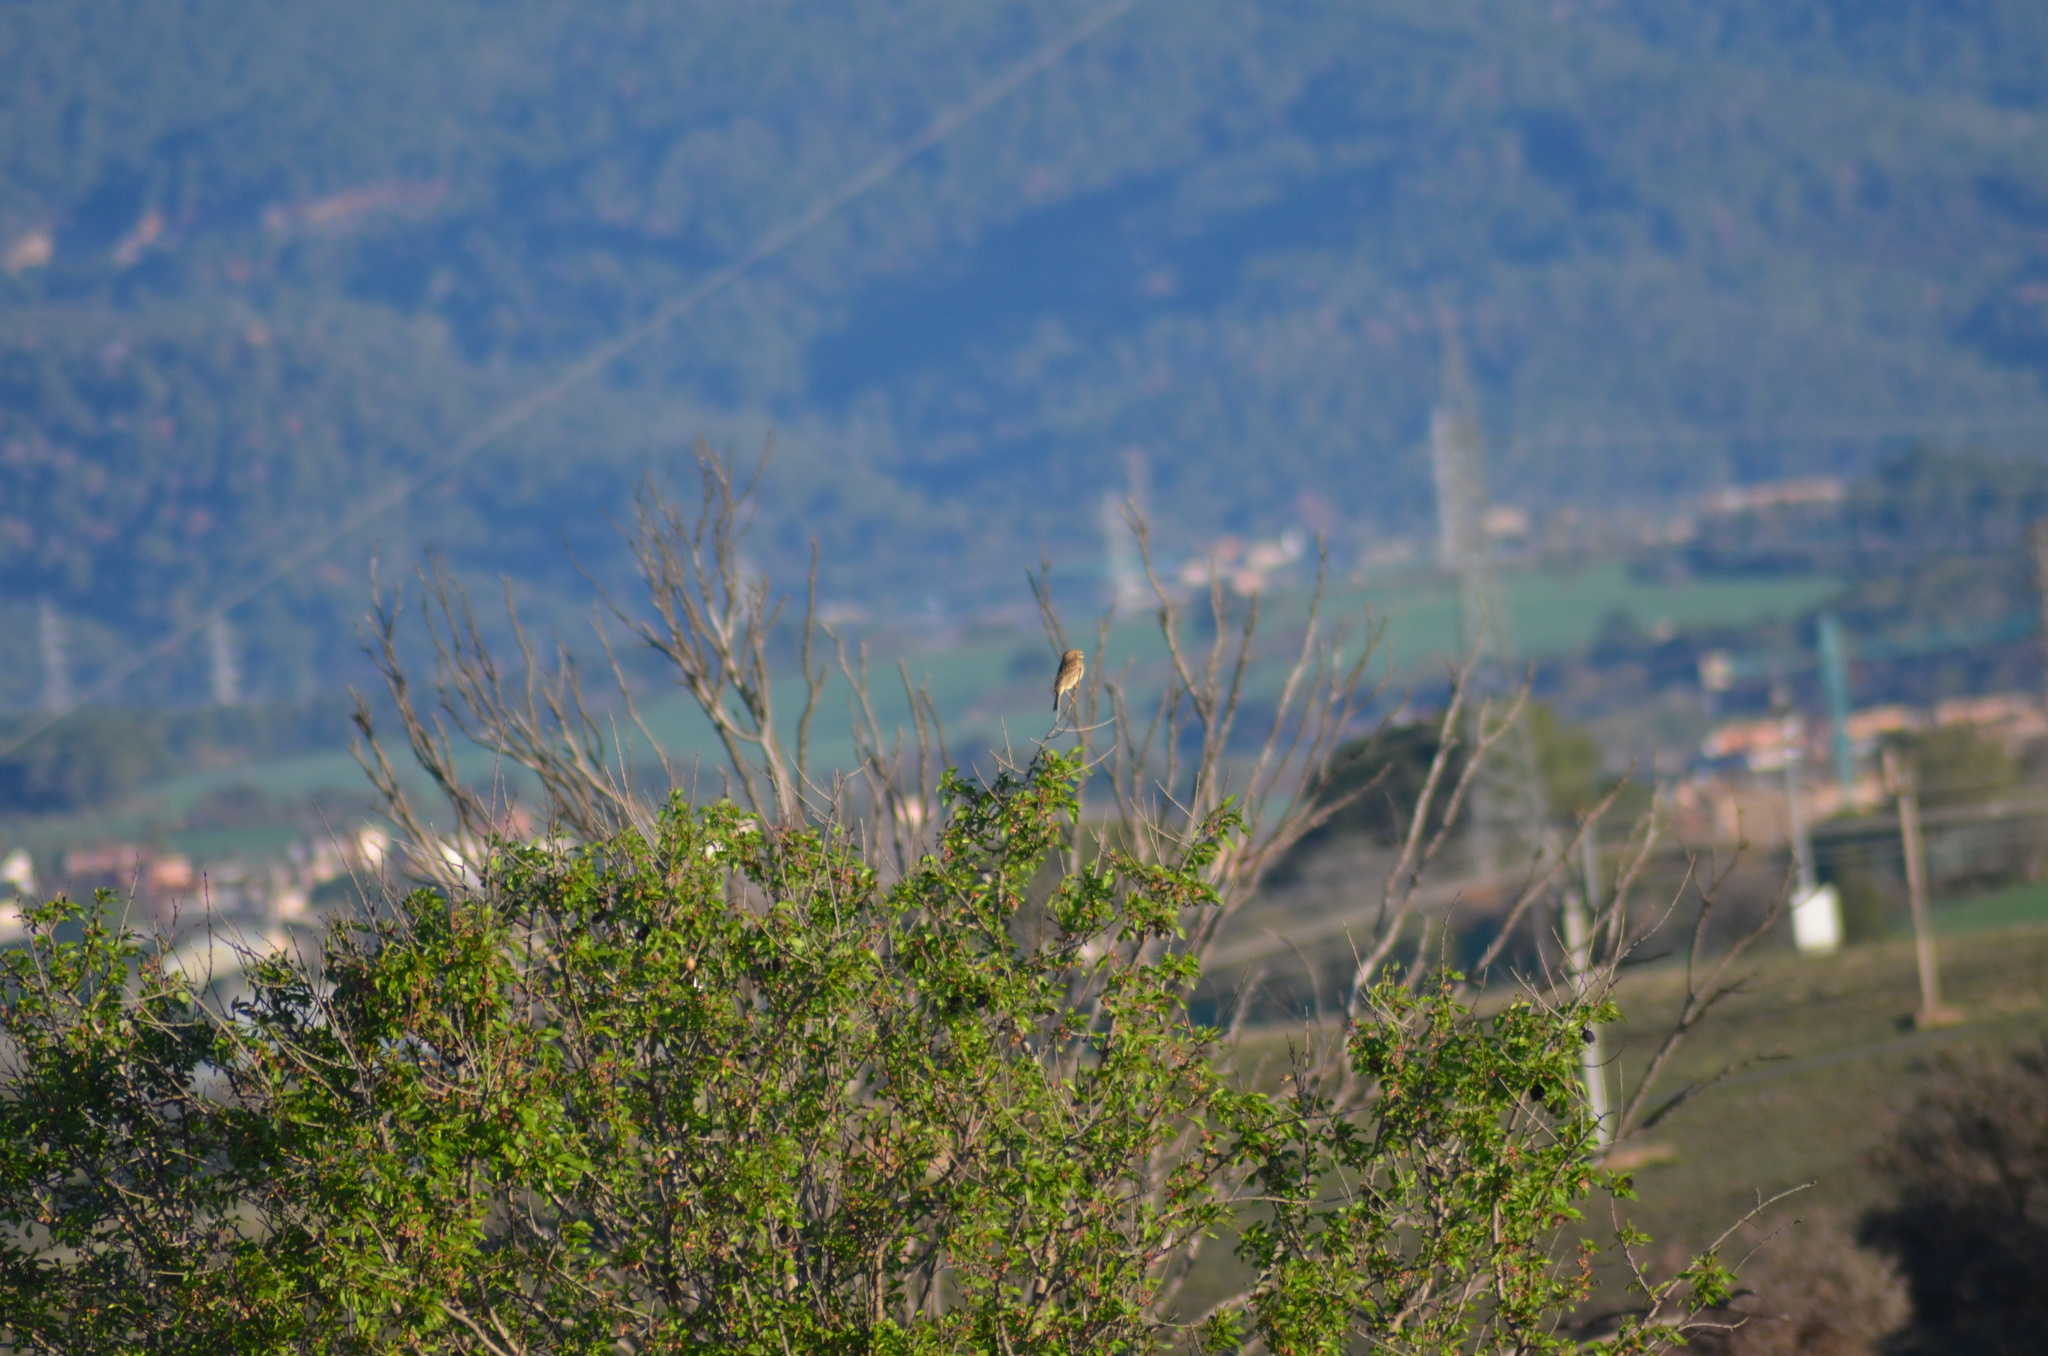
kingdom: Animalia
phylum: Chordata
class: Aves
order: Passeriformes
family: Emberizidae
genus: Emberiza
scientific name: Emberiza calandra
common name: Corn bunting
